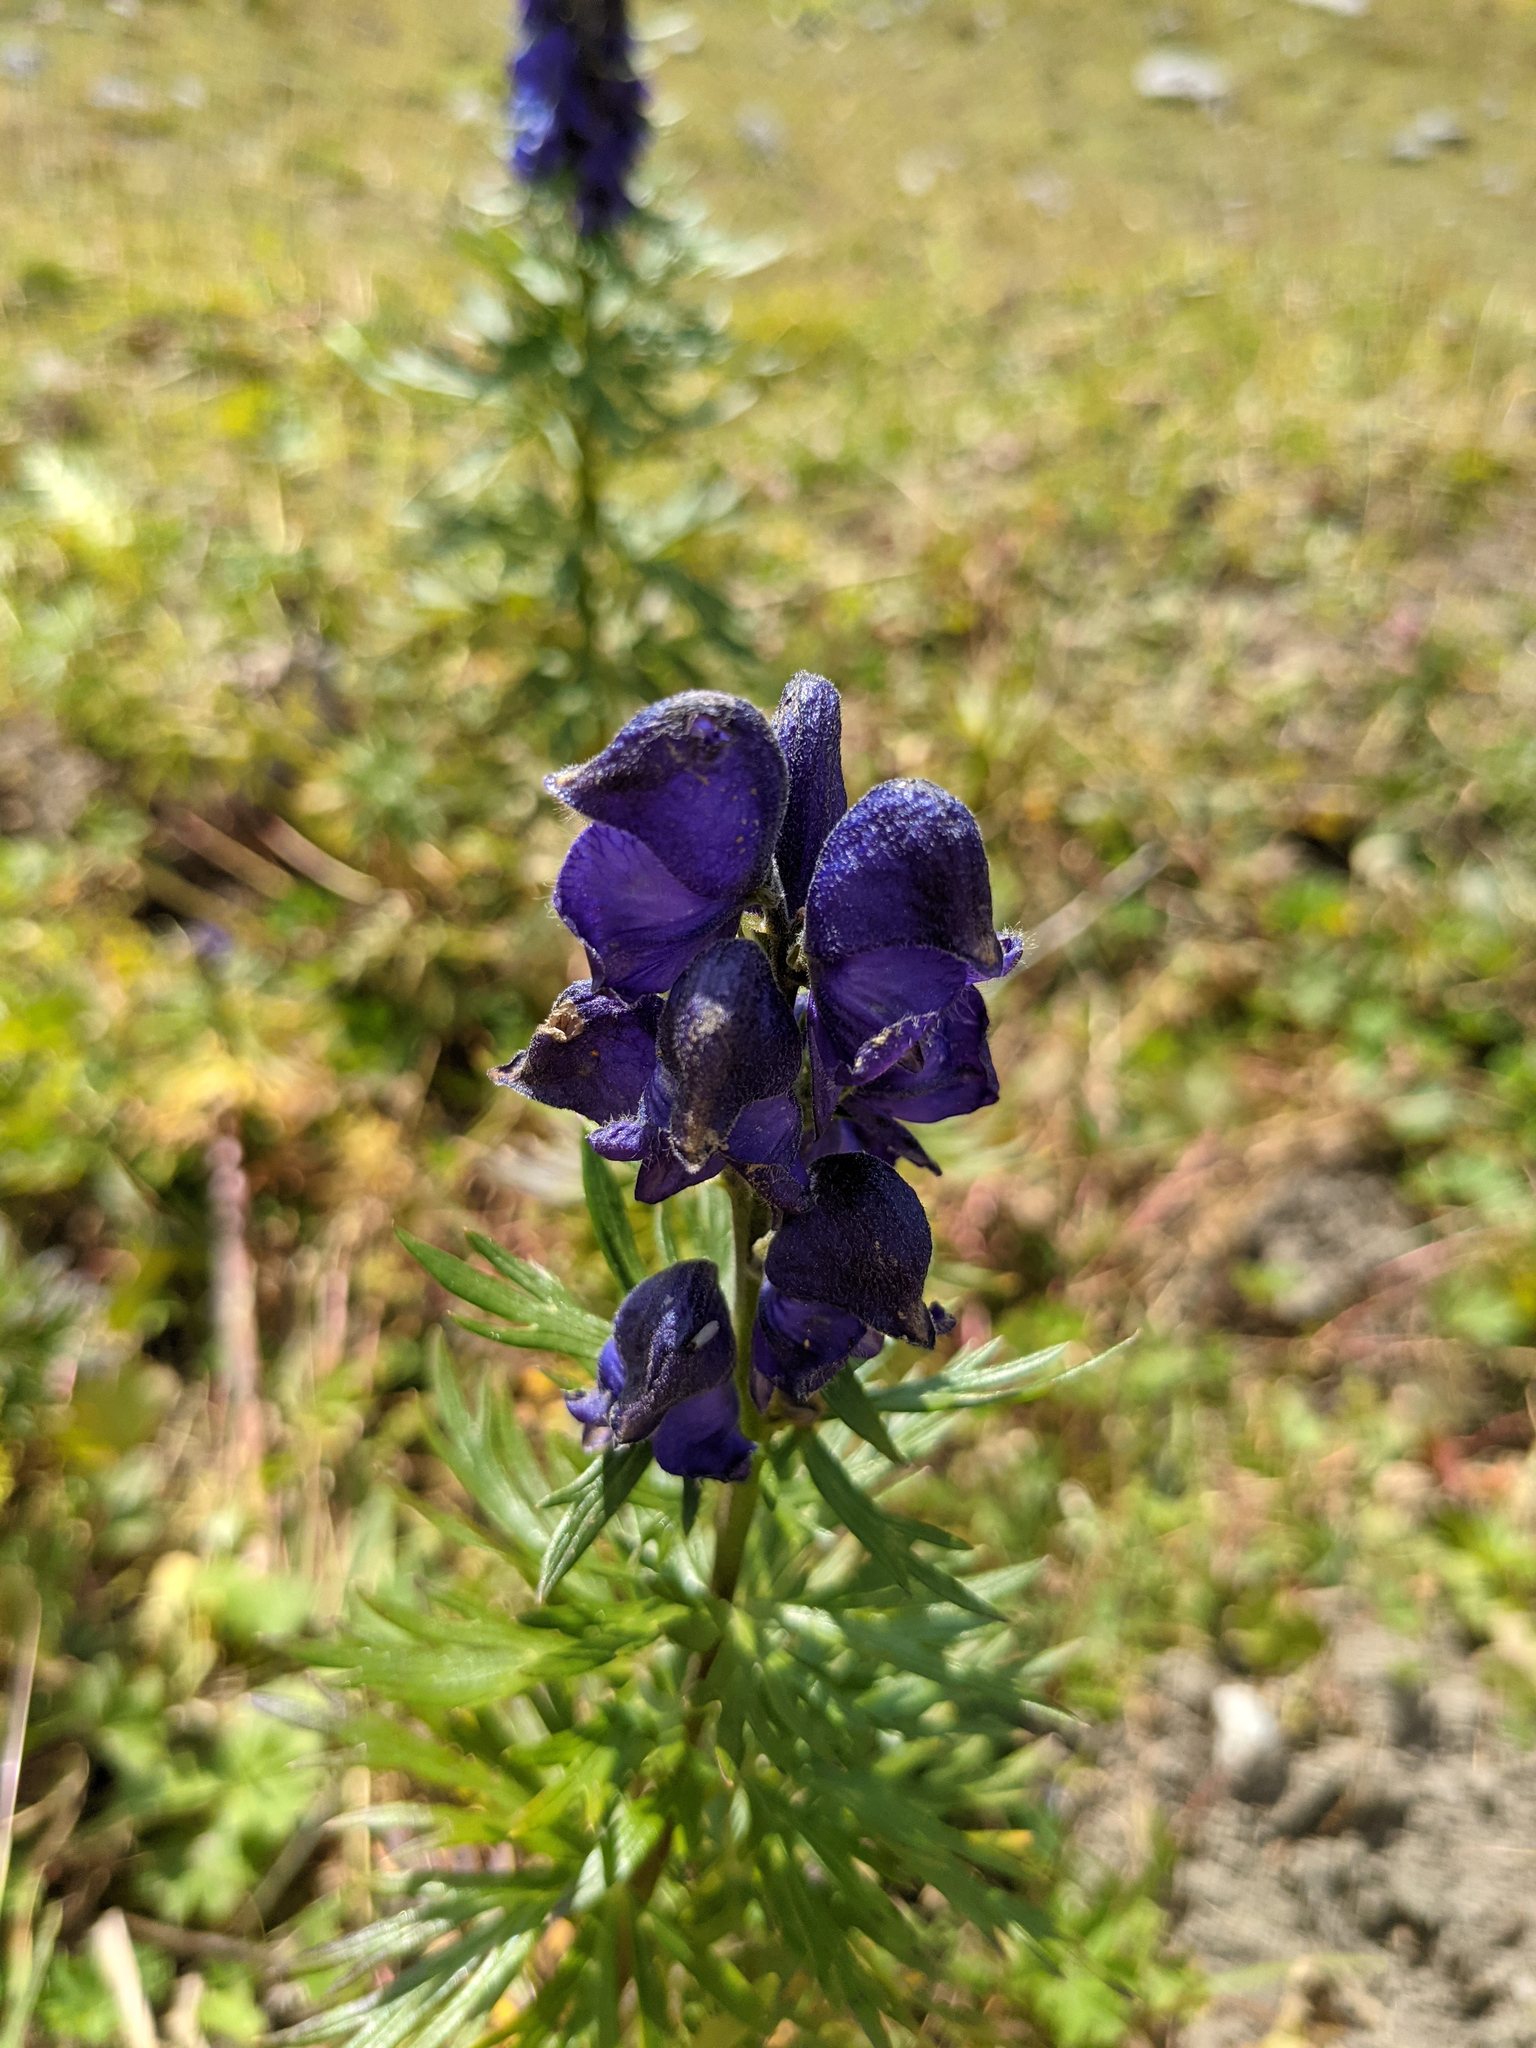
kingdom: Plantae
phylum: Tracheophyta
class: Magnoliopsida
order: Ranunculales
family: Ranunculaceae
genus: Aconitum
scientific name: Aconitum napellus
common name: Garden monkshood
